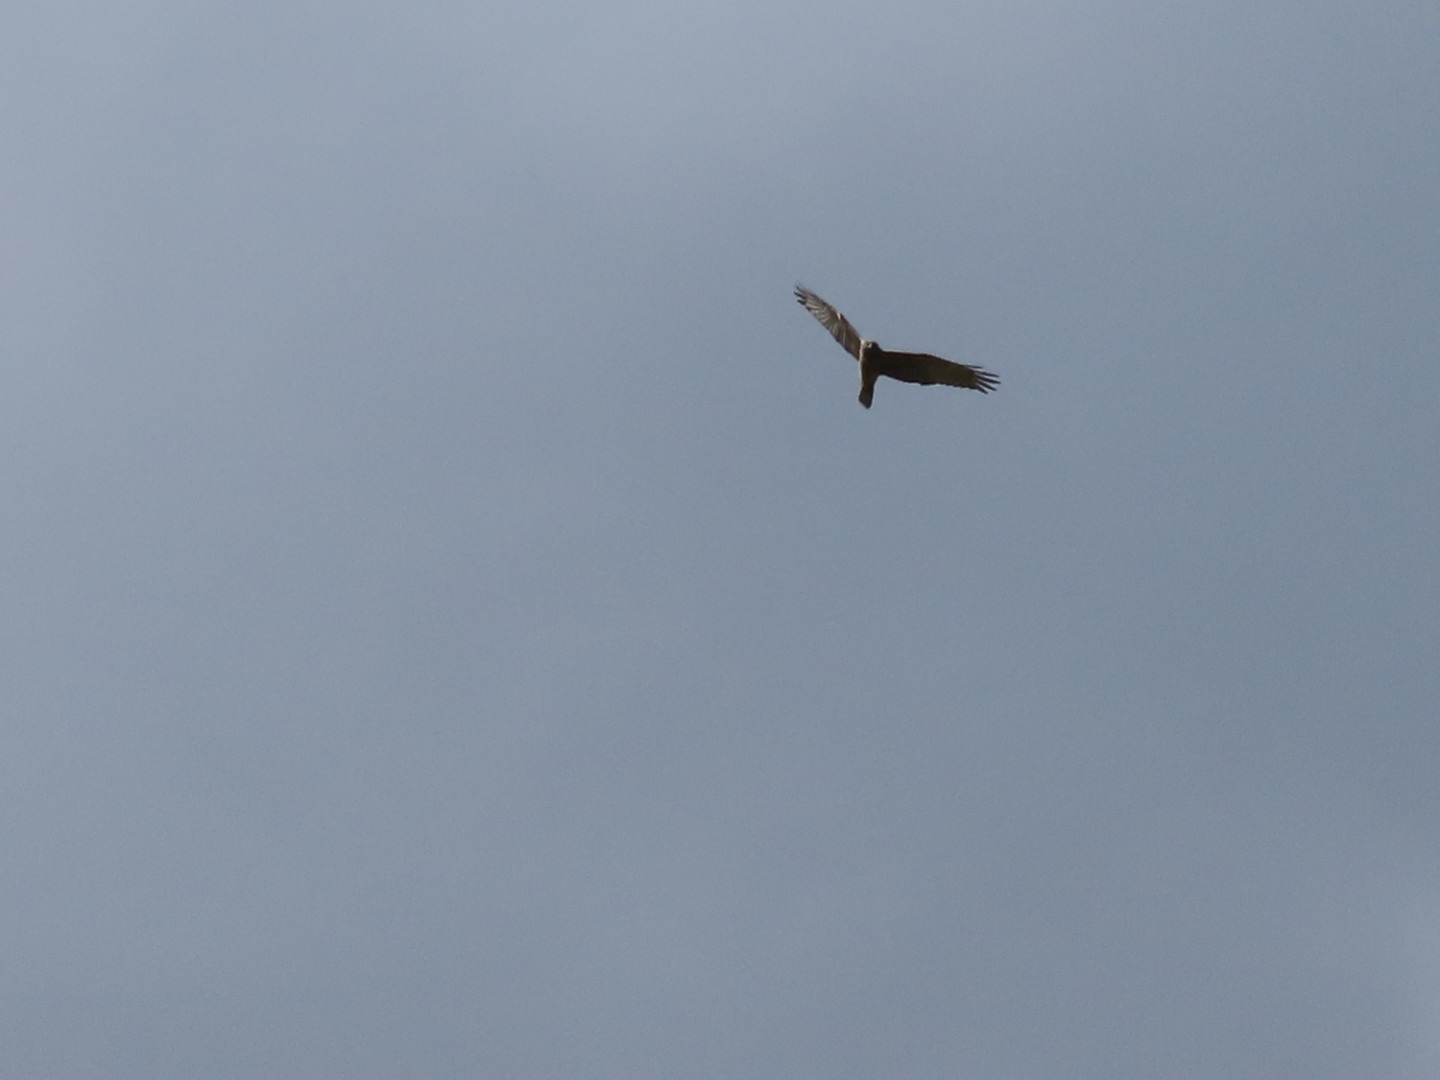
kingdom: Animalia
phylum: Chordata
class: Aves
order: Accipitriformes
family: Accipitridae
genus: Circus
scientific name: Circus approximans
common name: Swamp harrier
